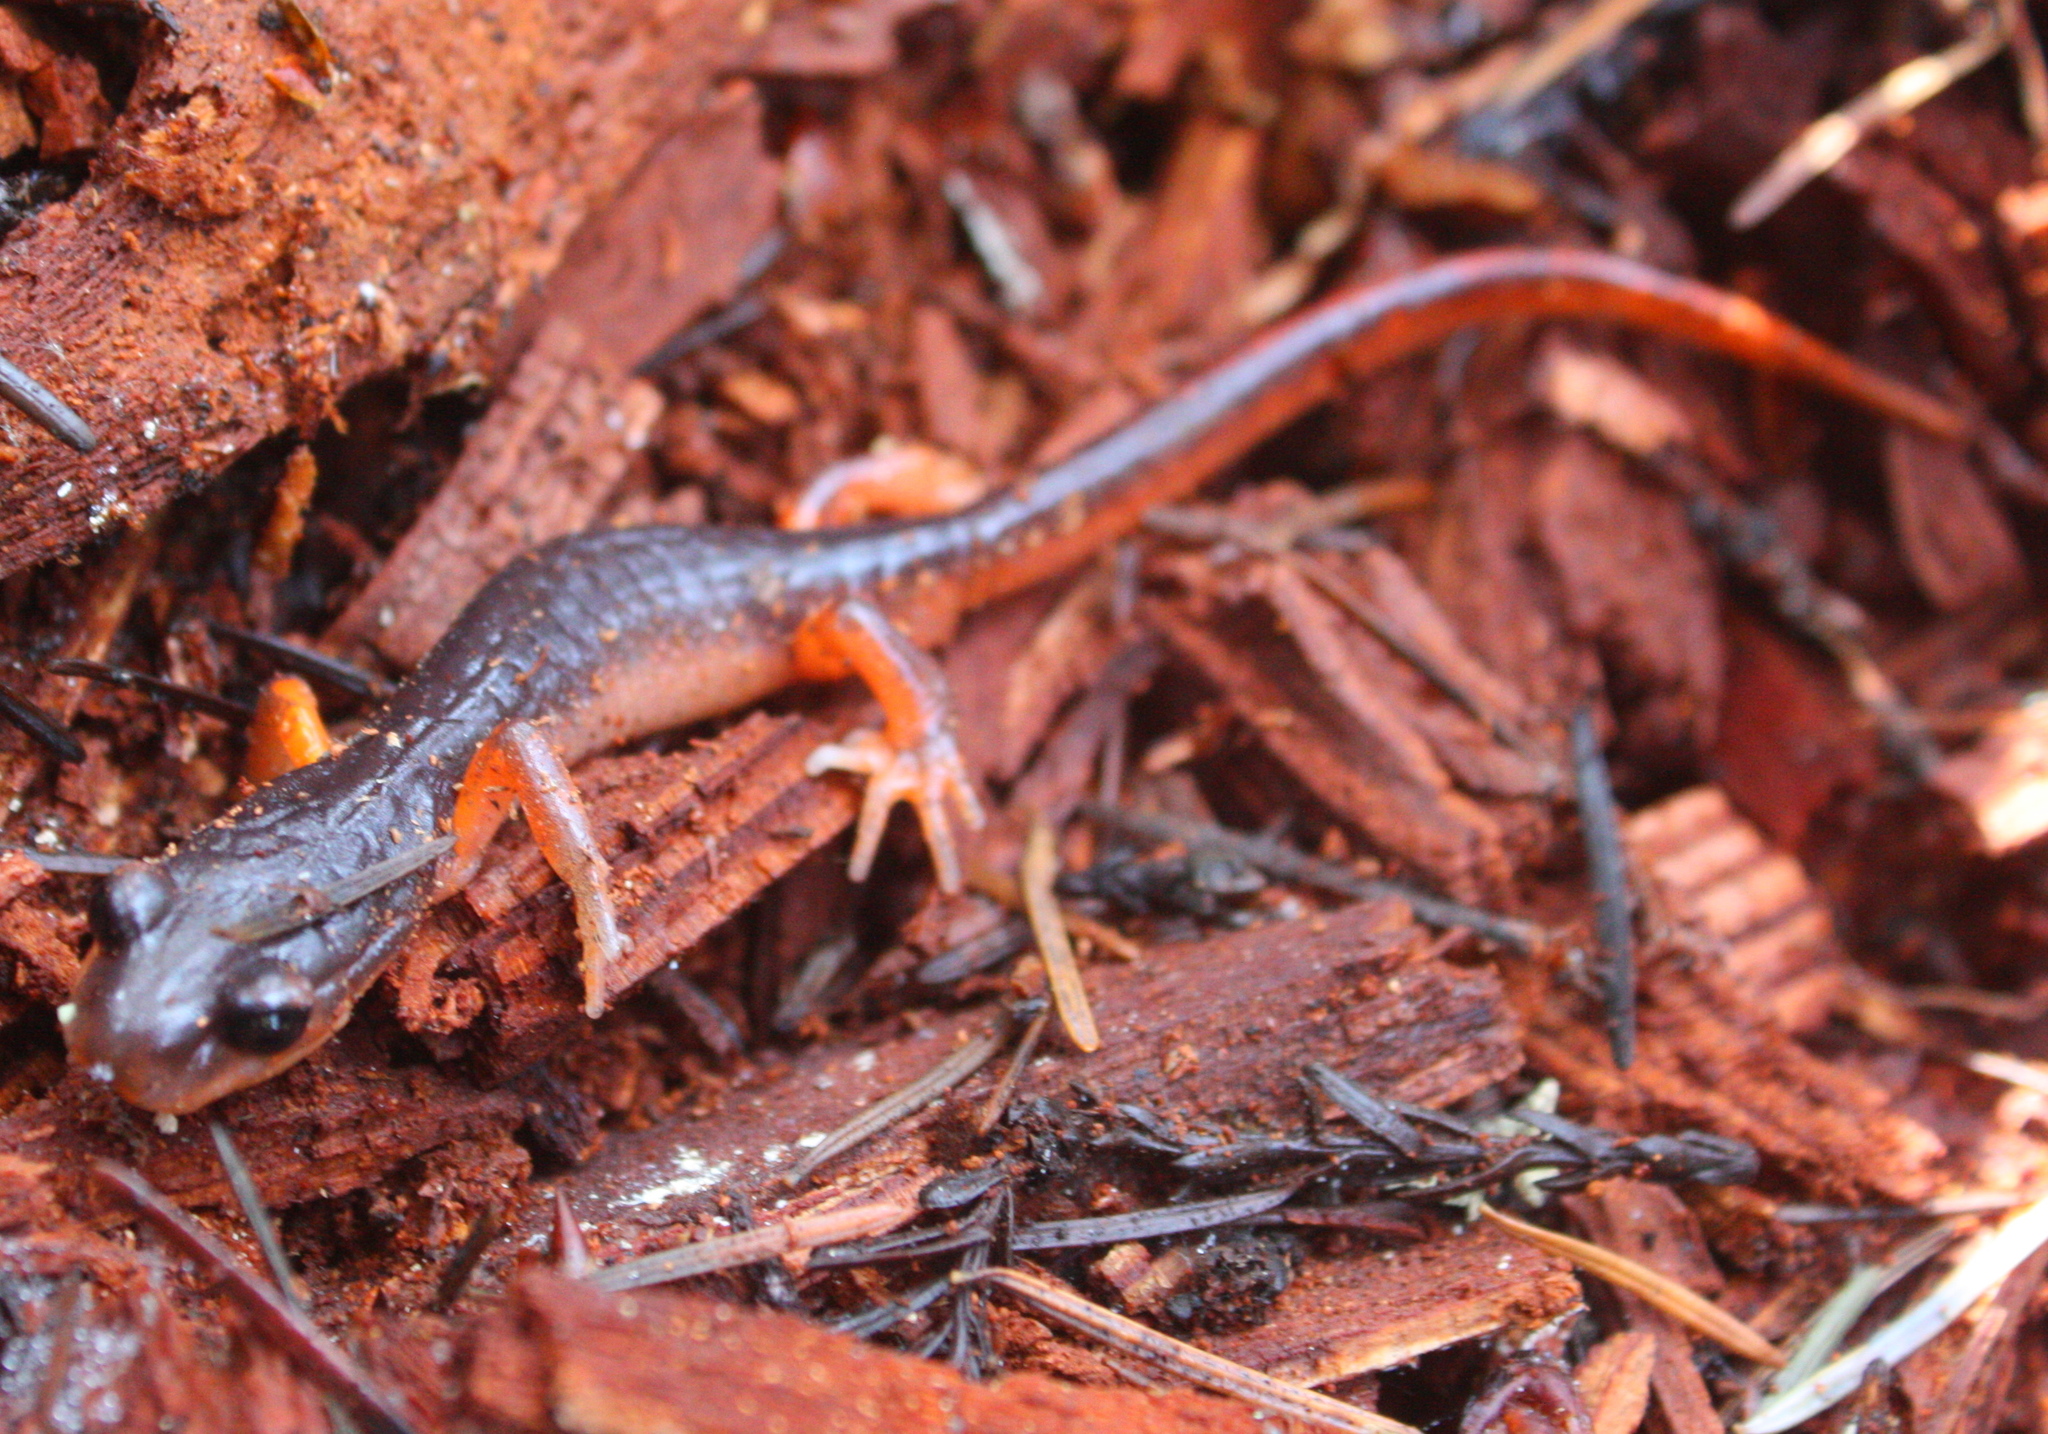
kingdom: Animalia
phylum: Chordata
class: Amphibia
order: Caudata
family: Plethodontidae
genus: Ensatina
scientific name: Ensatina eschscholtzii
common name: Ensatina
